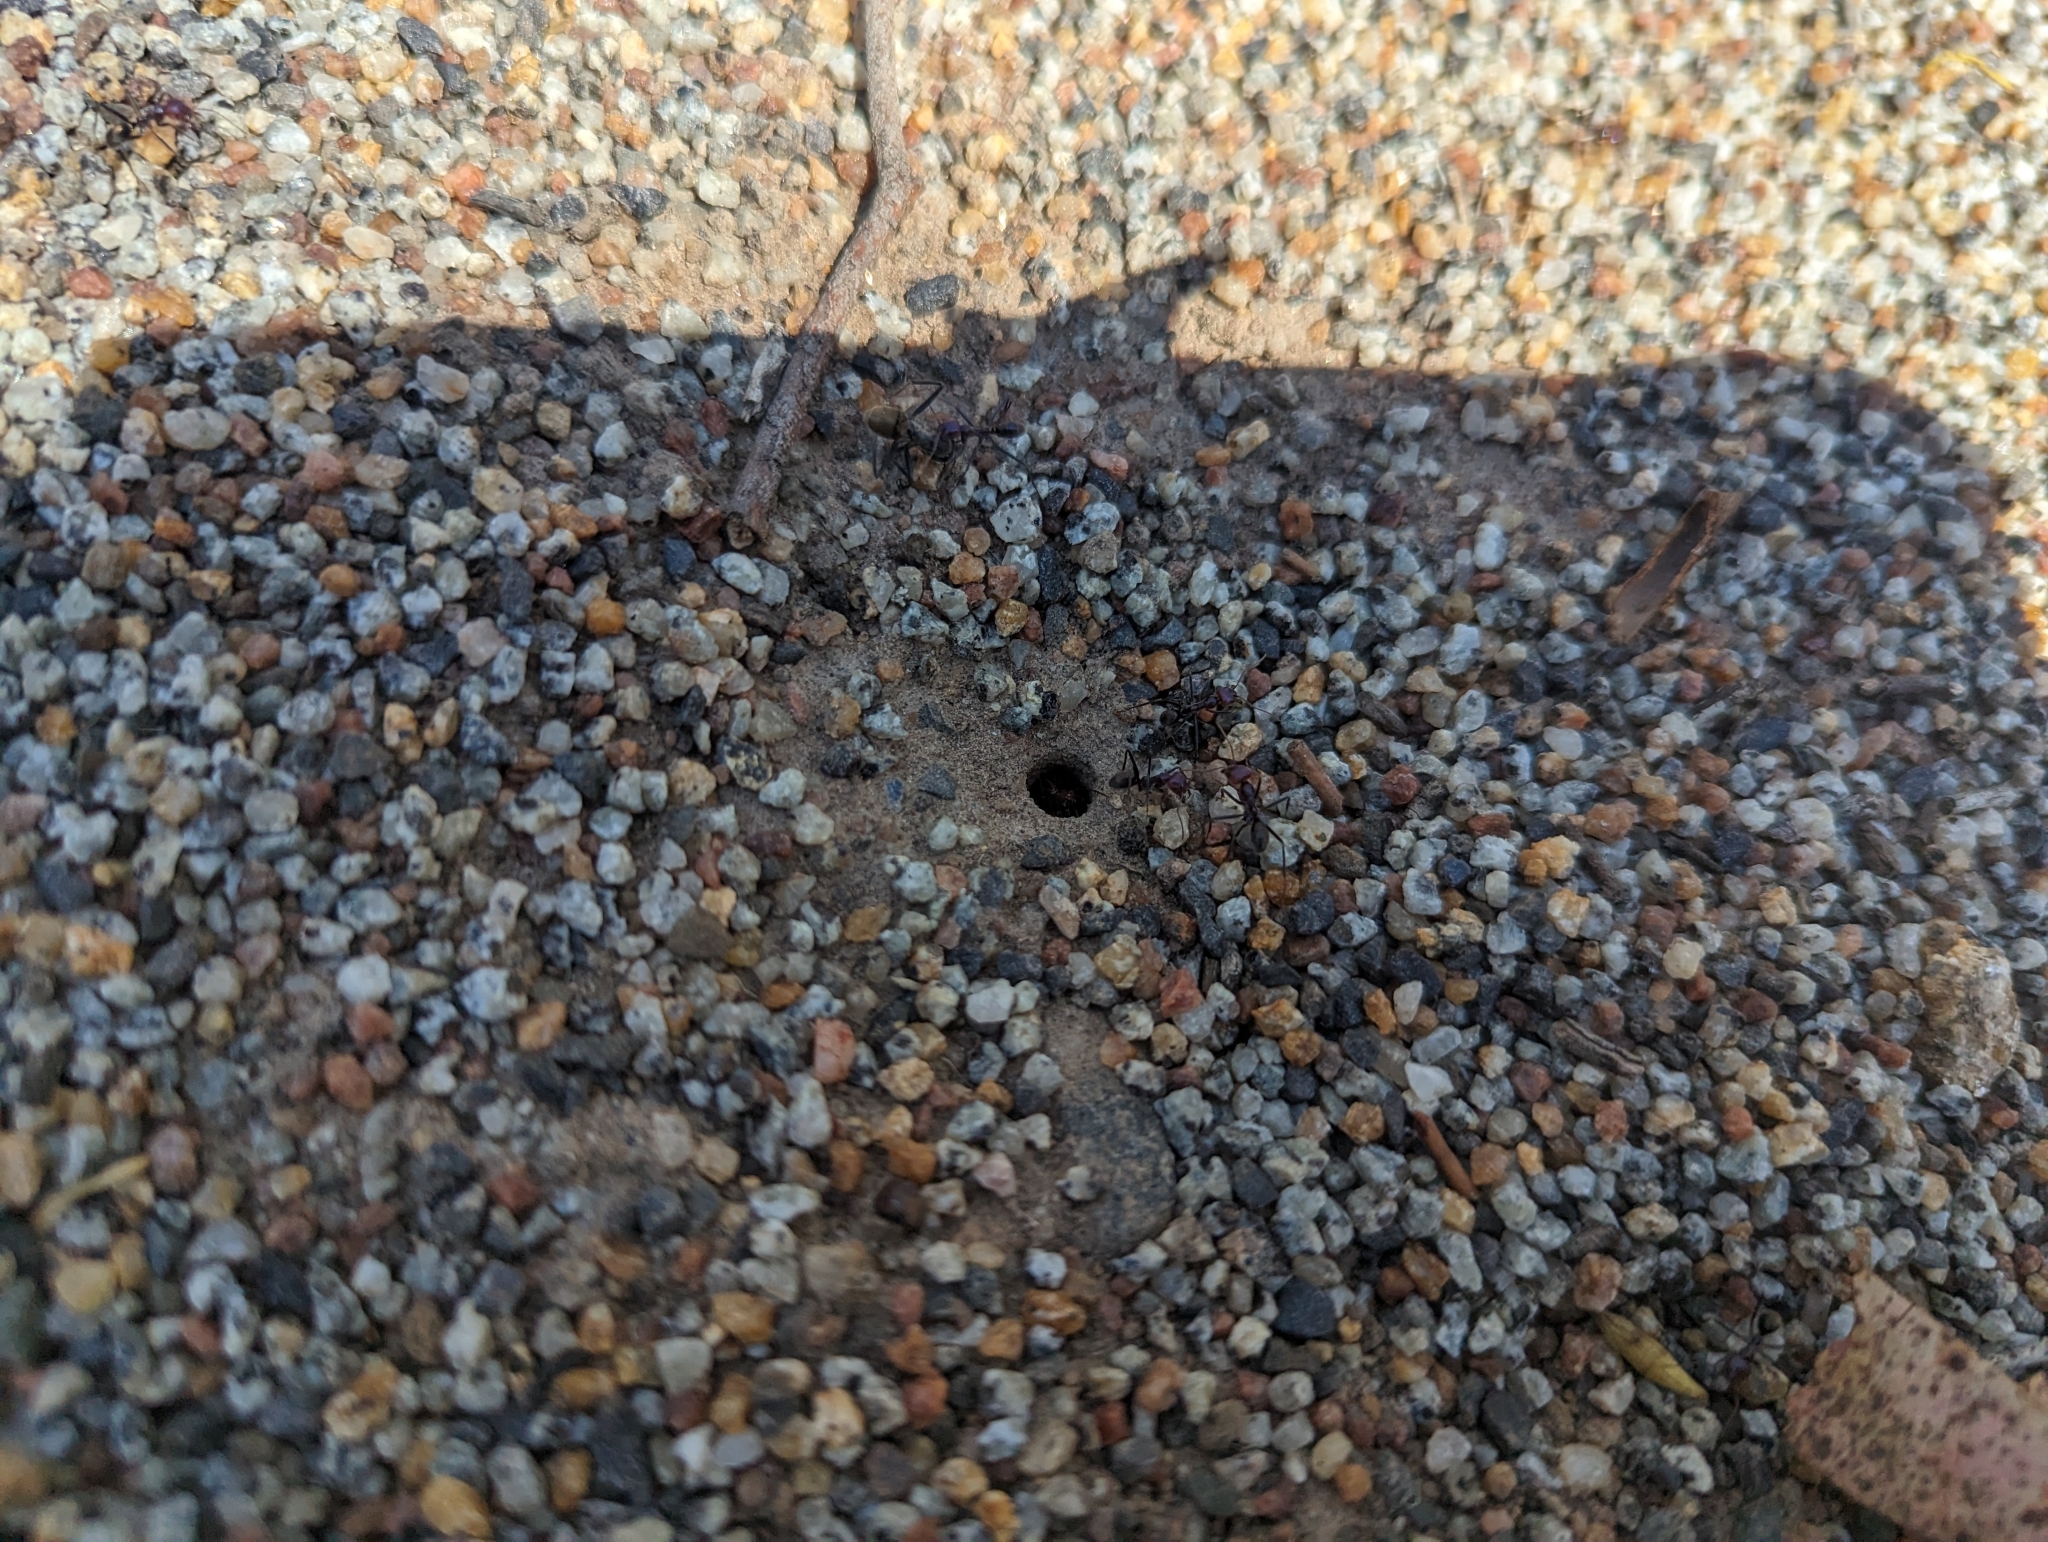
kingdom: Animalia
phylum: Arthropoda
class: Insecta
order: Hymenoptera
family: Formicidae
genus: Iridomyrmex
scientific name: Iridomyrmex purpureus
